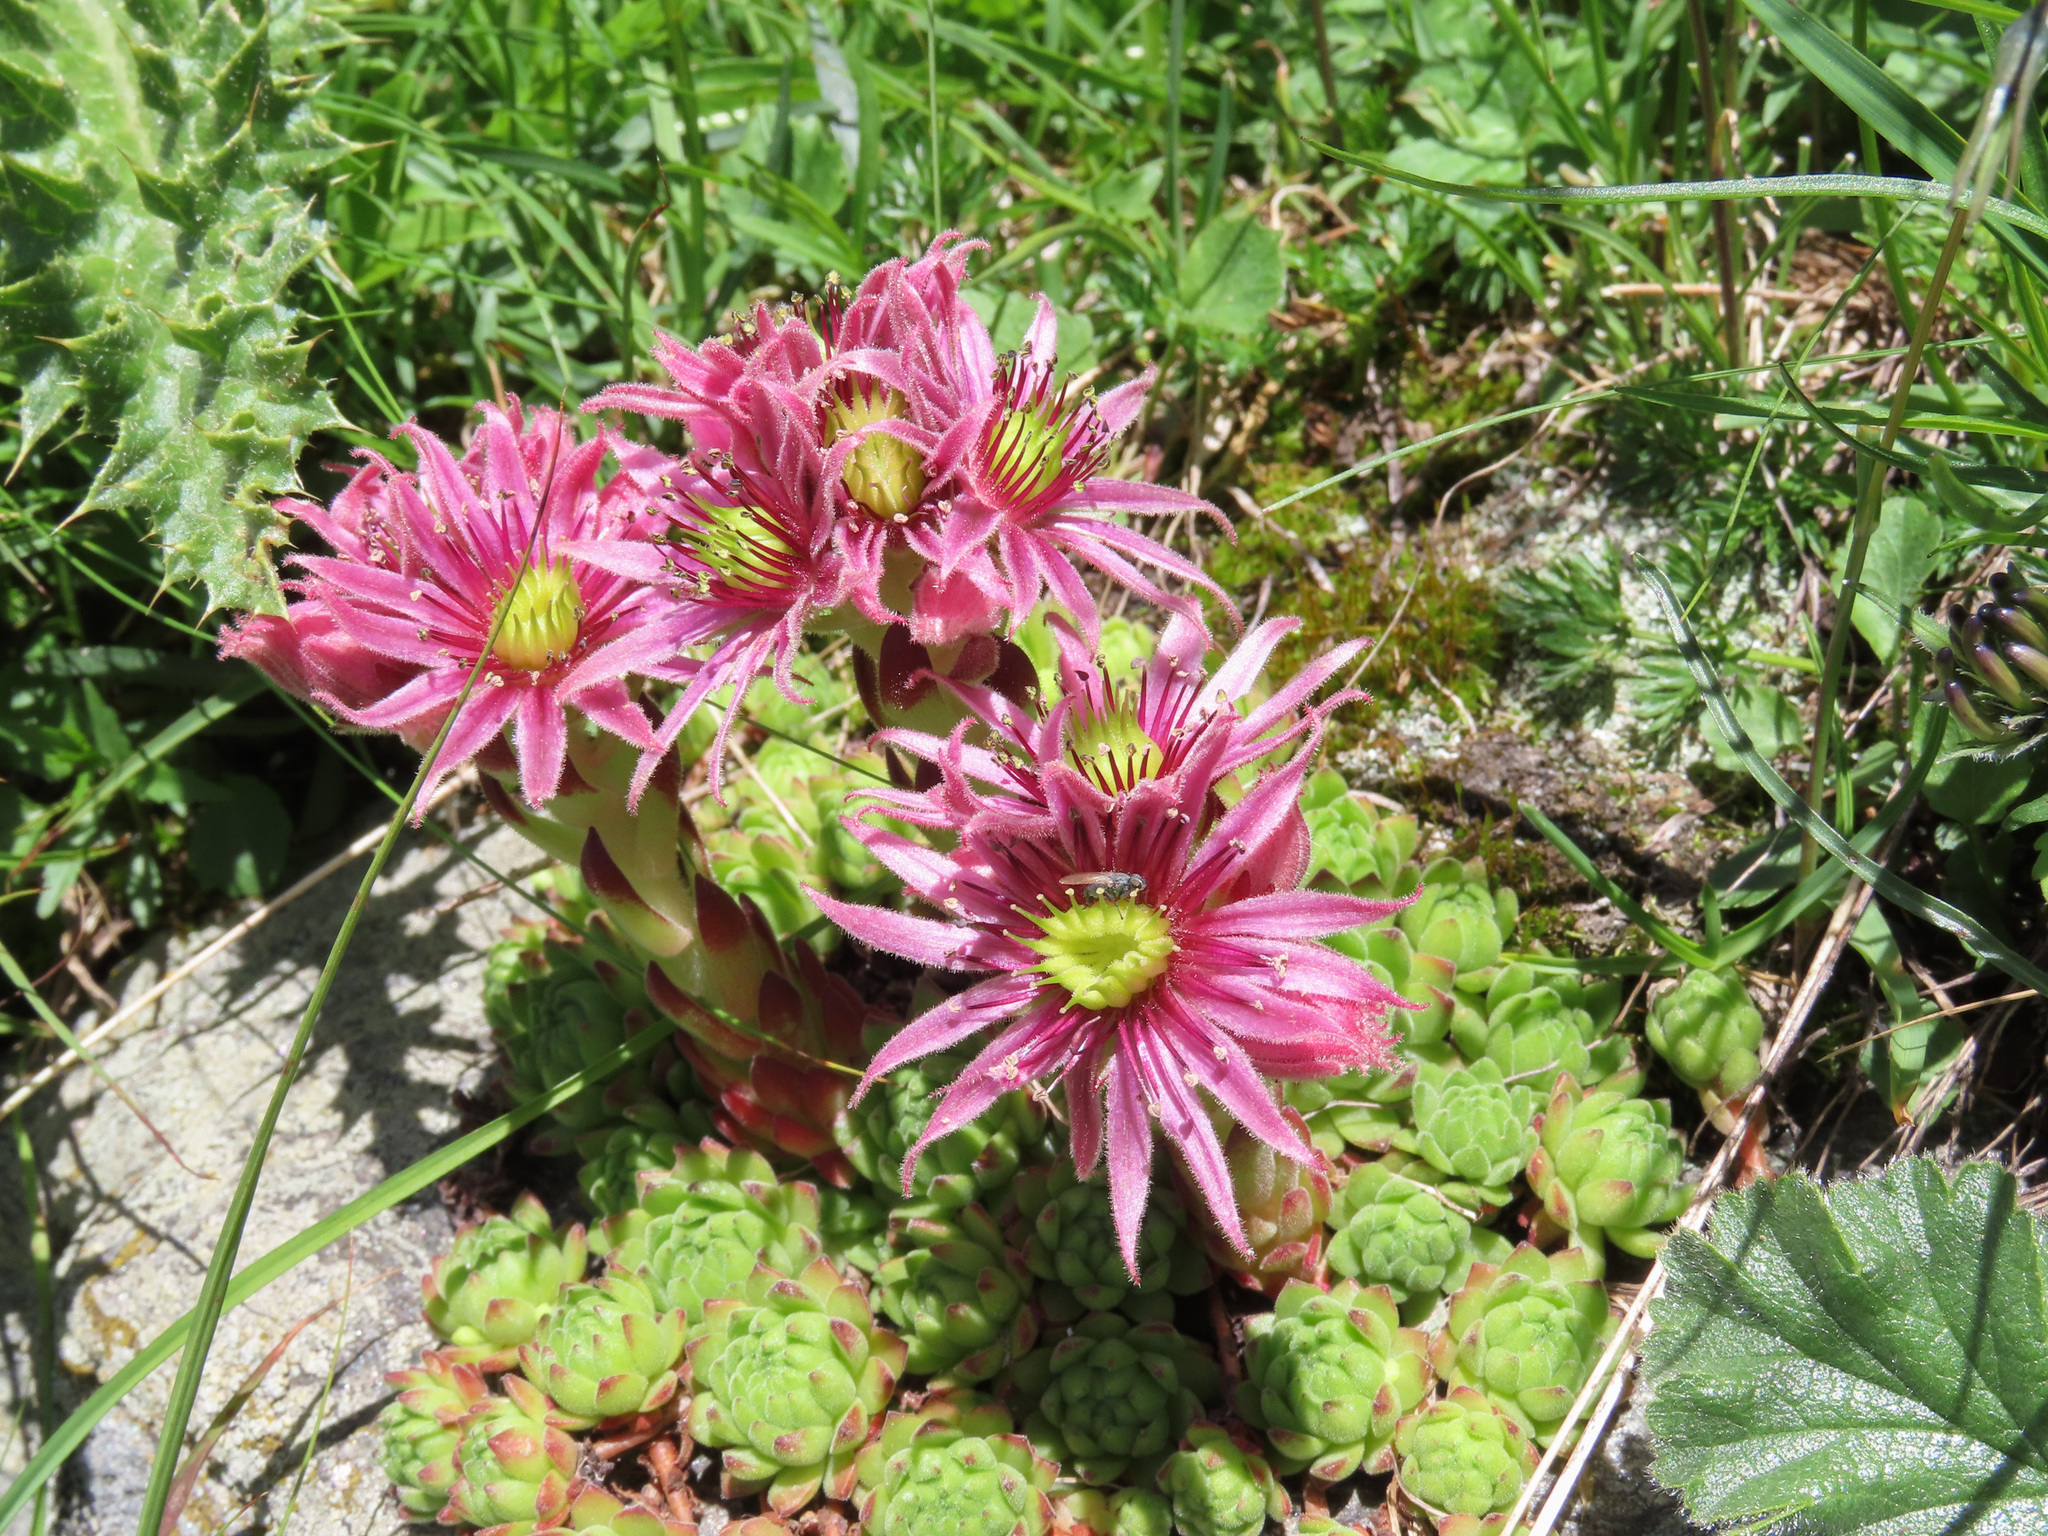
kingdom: Plantae
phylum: Tracheophyta
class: Magnoliopsida
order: Saxifragales
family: Crassulaceae
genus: Sempervivum
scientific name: Sempervivum montanum
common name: Mountain house-leek
